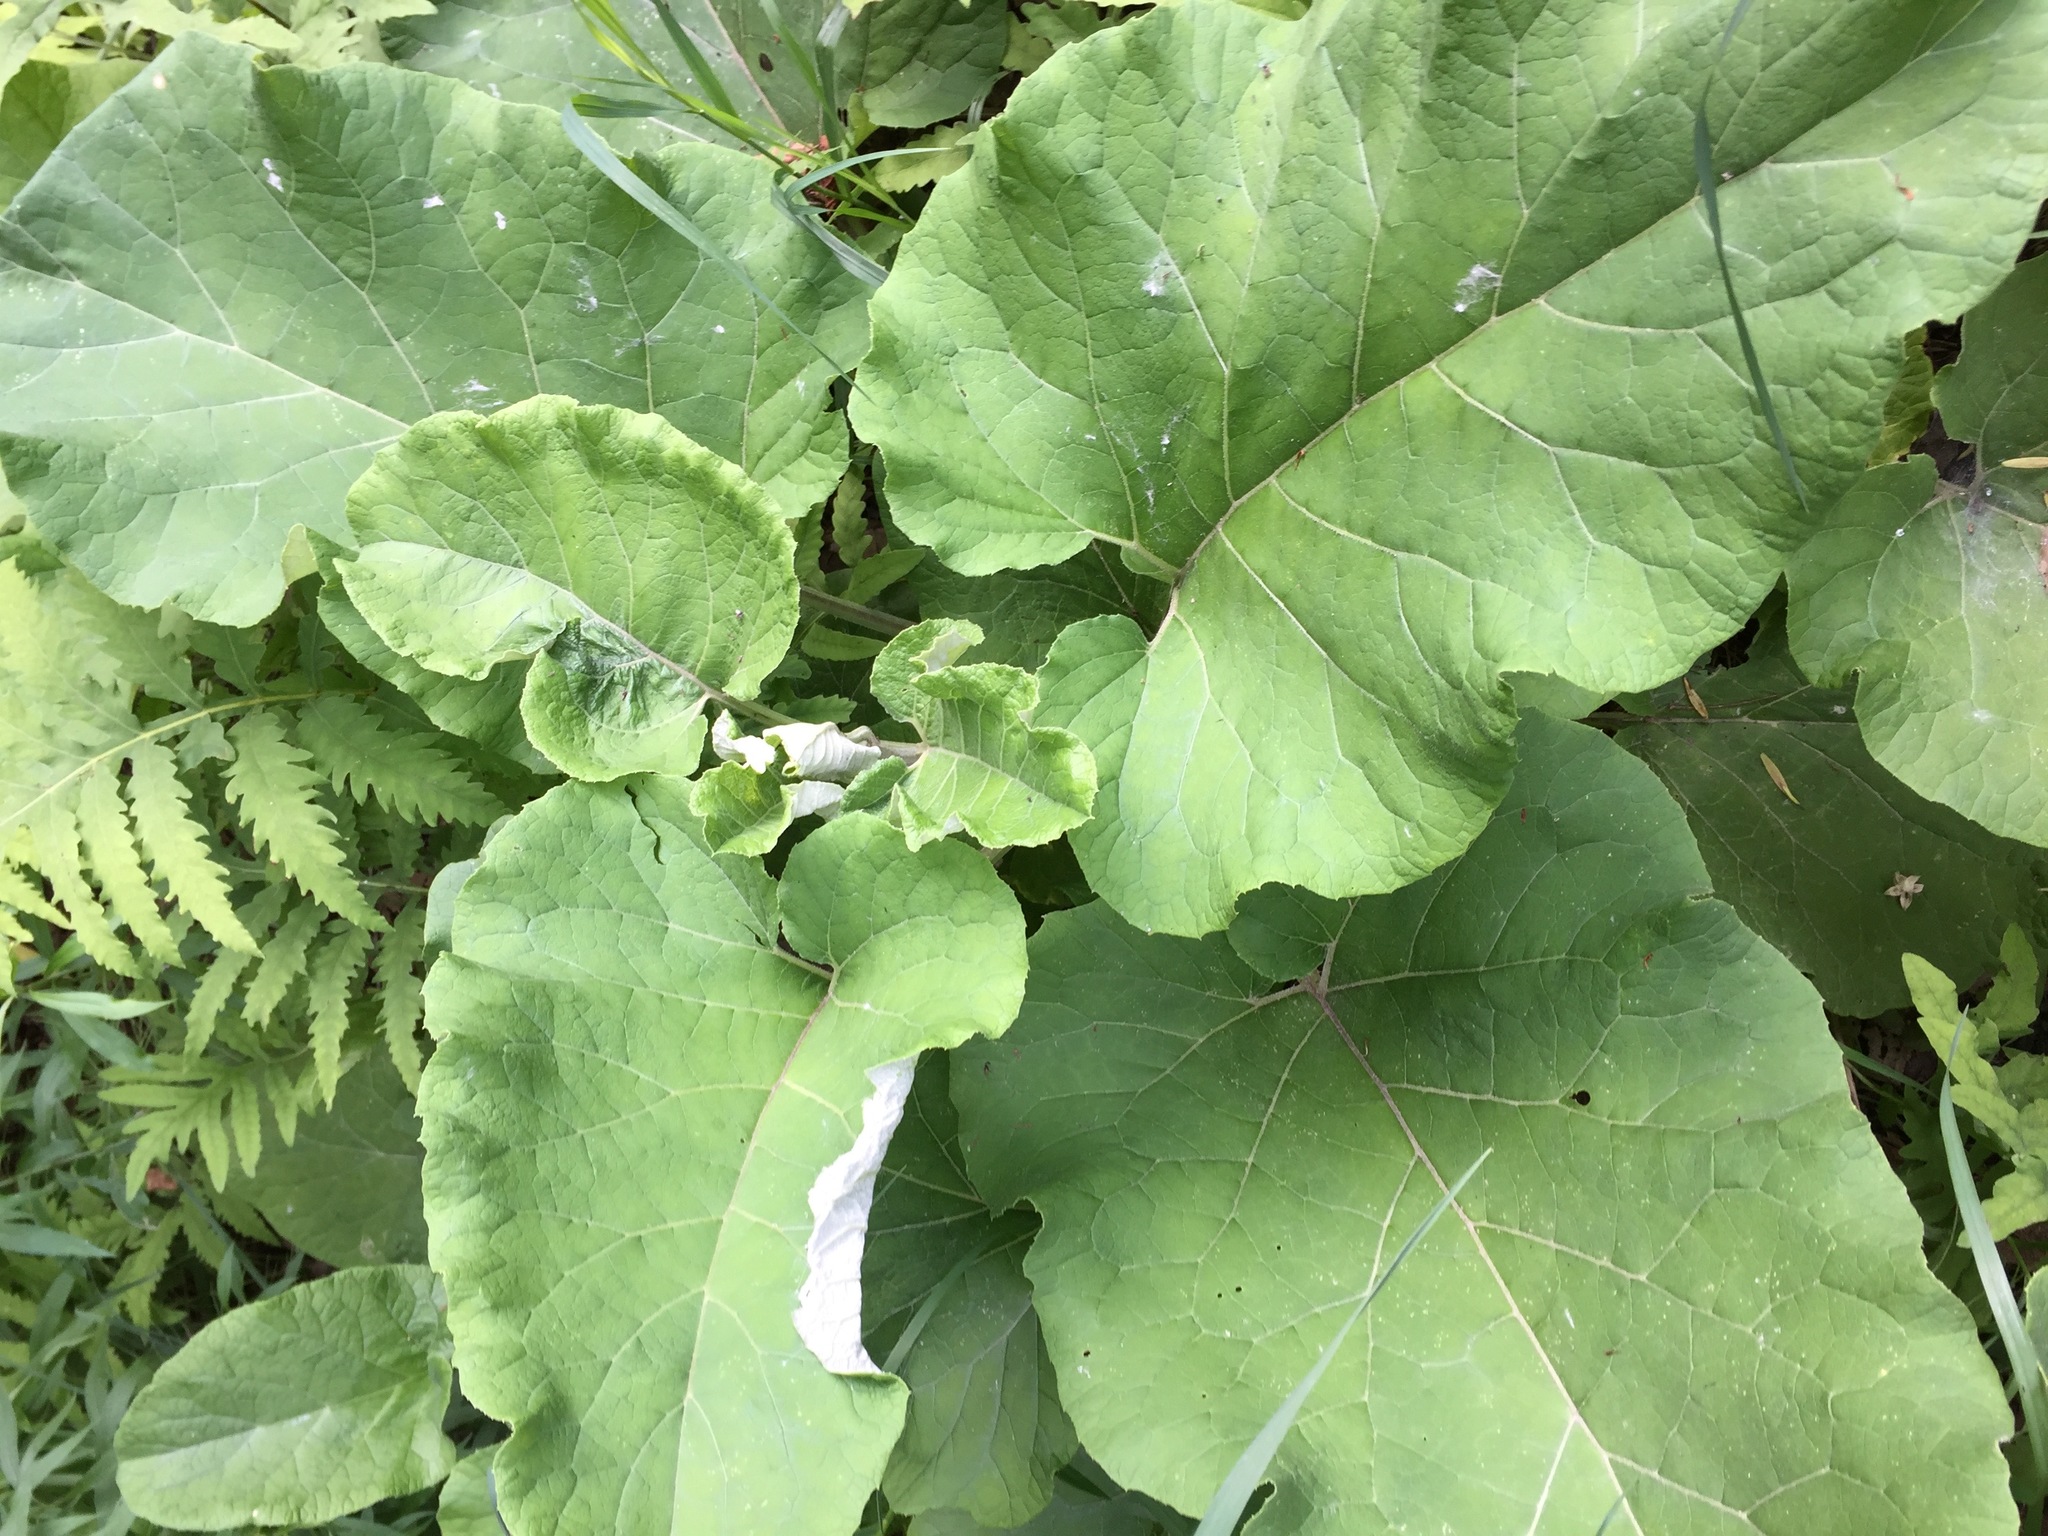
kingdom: Plantae
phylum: Tracheophyta
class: Magnoliopsida
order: Asterales
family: Asteraceae
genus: Arctium
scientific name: Arctium
